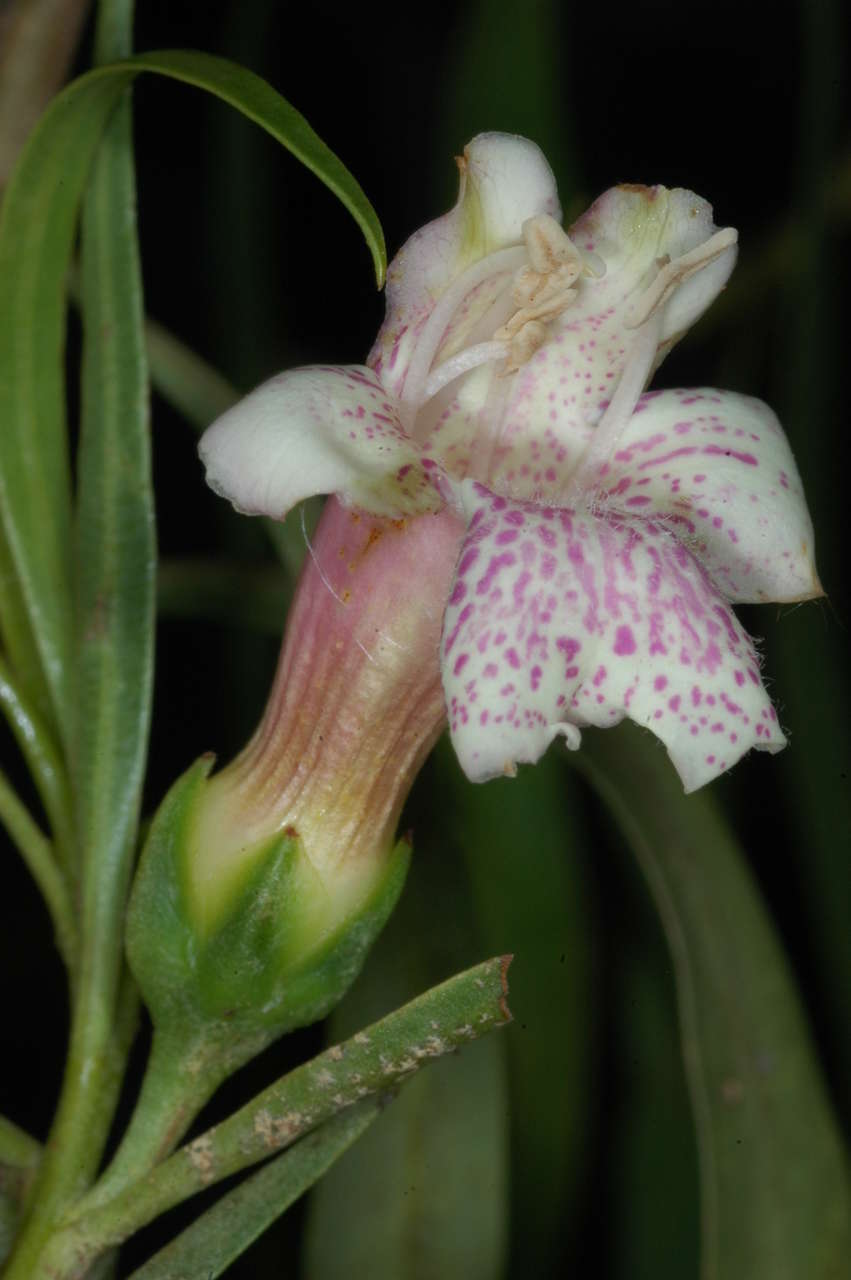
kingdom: Plantae
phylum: Tracheophyta
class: Magnoliopsida
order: Lamiales
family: Scrophulariaceae
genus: Eremophila
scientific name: Eremophila bignoniiflora
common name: Bignonia emu-bush
